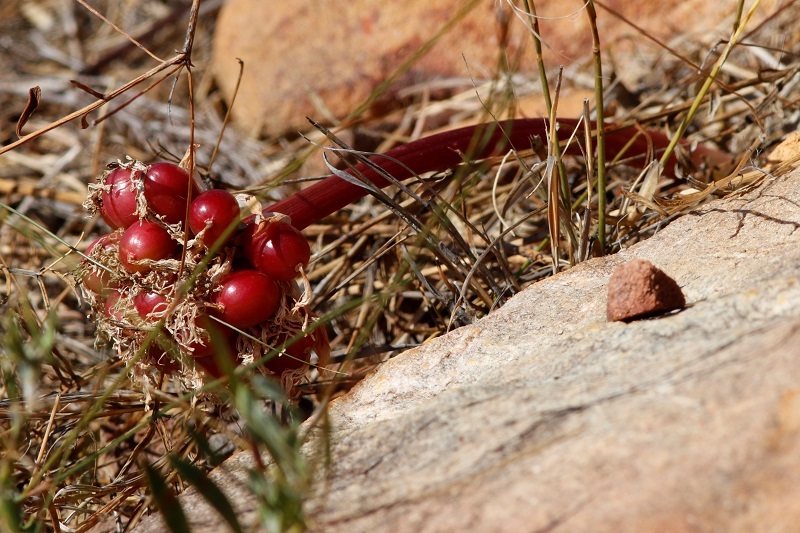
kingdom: Plantae
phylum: Tracheophyta
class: Liliopsida
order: Asparagales
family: Amaryllidaceae
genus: Haemanthus
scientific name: Haemanthus sanguineus
